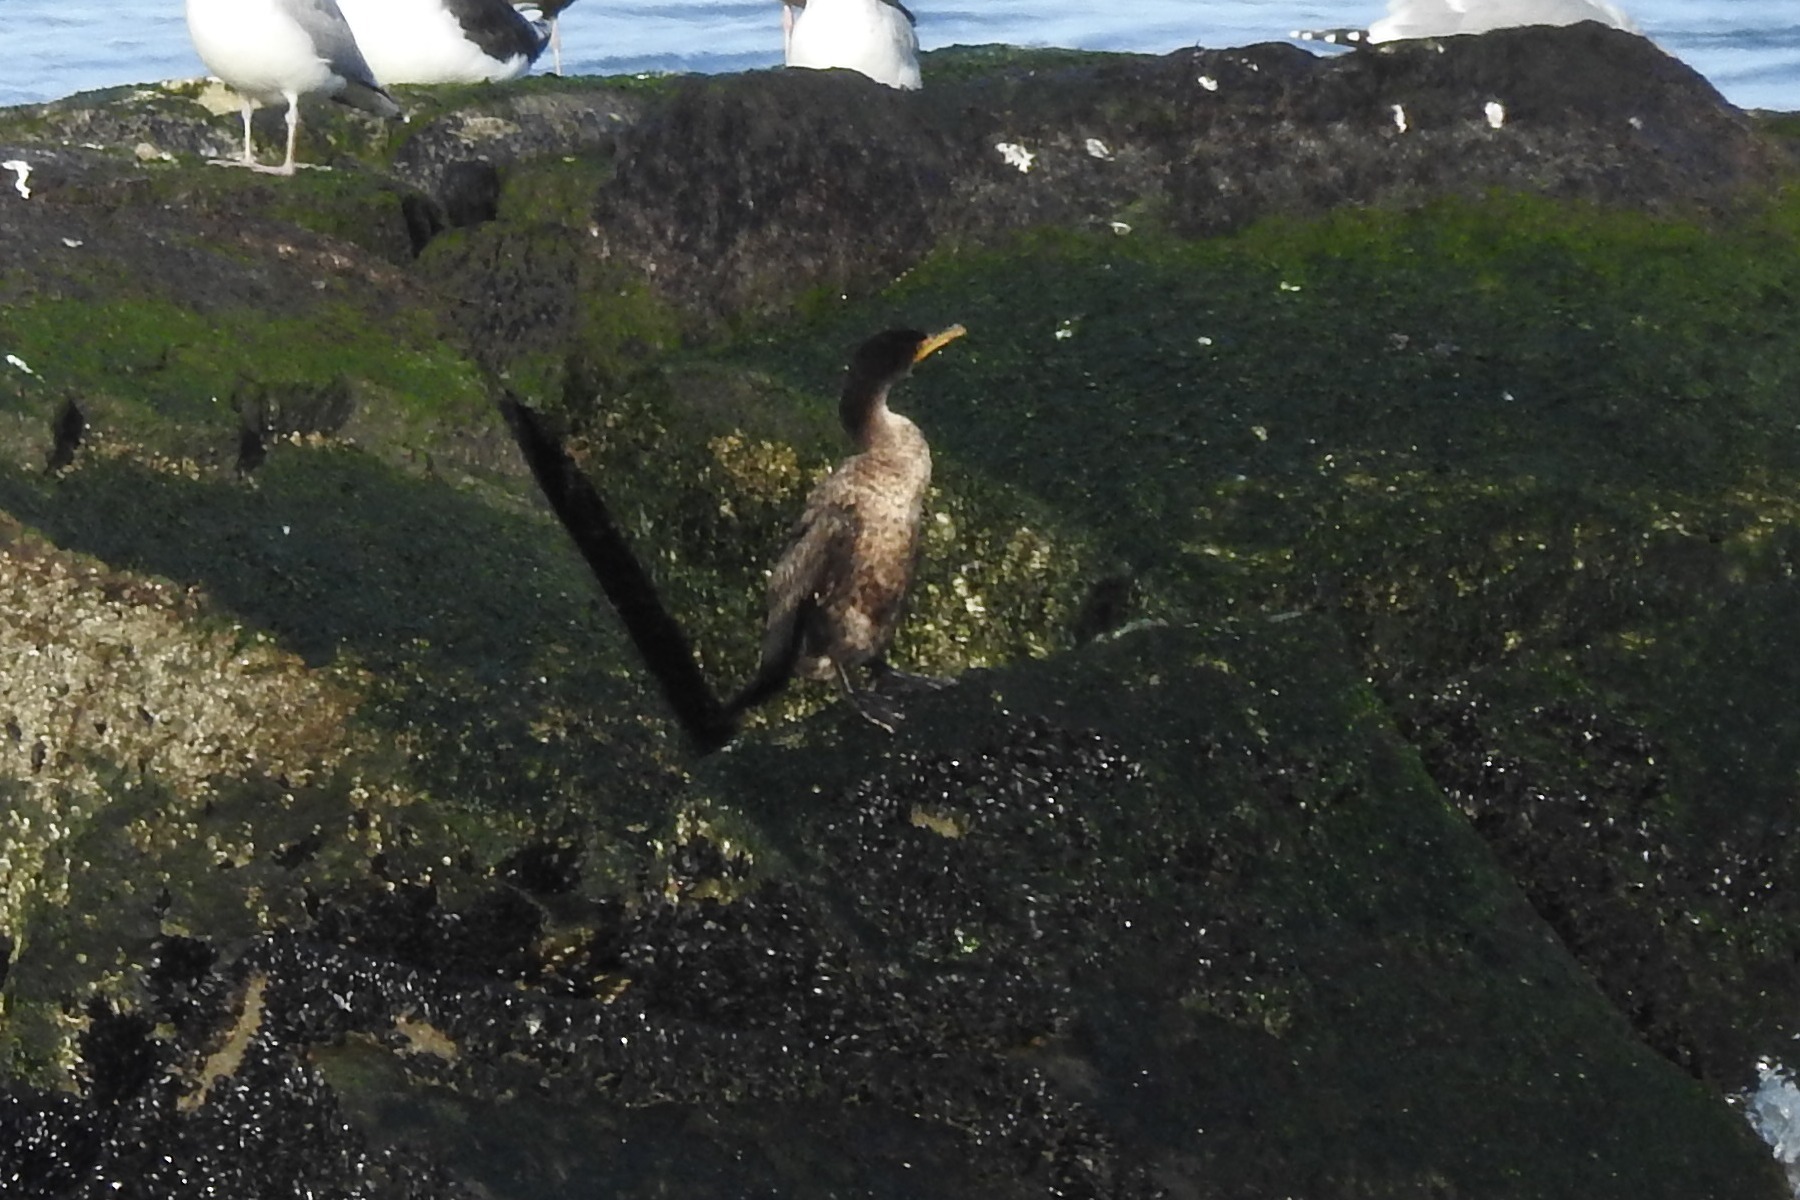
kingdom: Animalia
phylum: Chordata
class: Aves
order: Suliformes
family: Phalacrocoracidae
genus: Phalacrocorax
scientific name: Phalacrocorax auritus
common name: Double-crested cormorant
